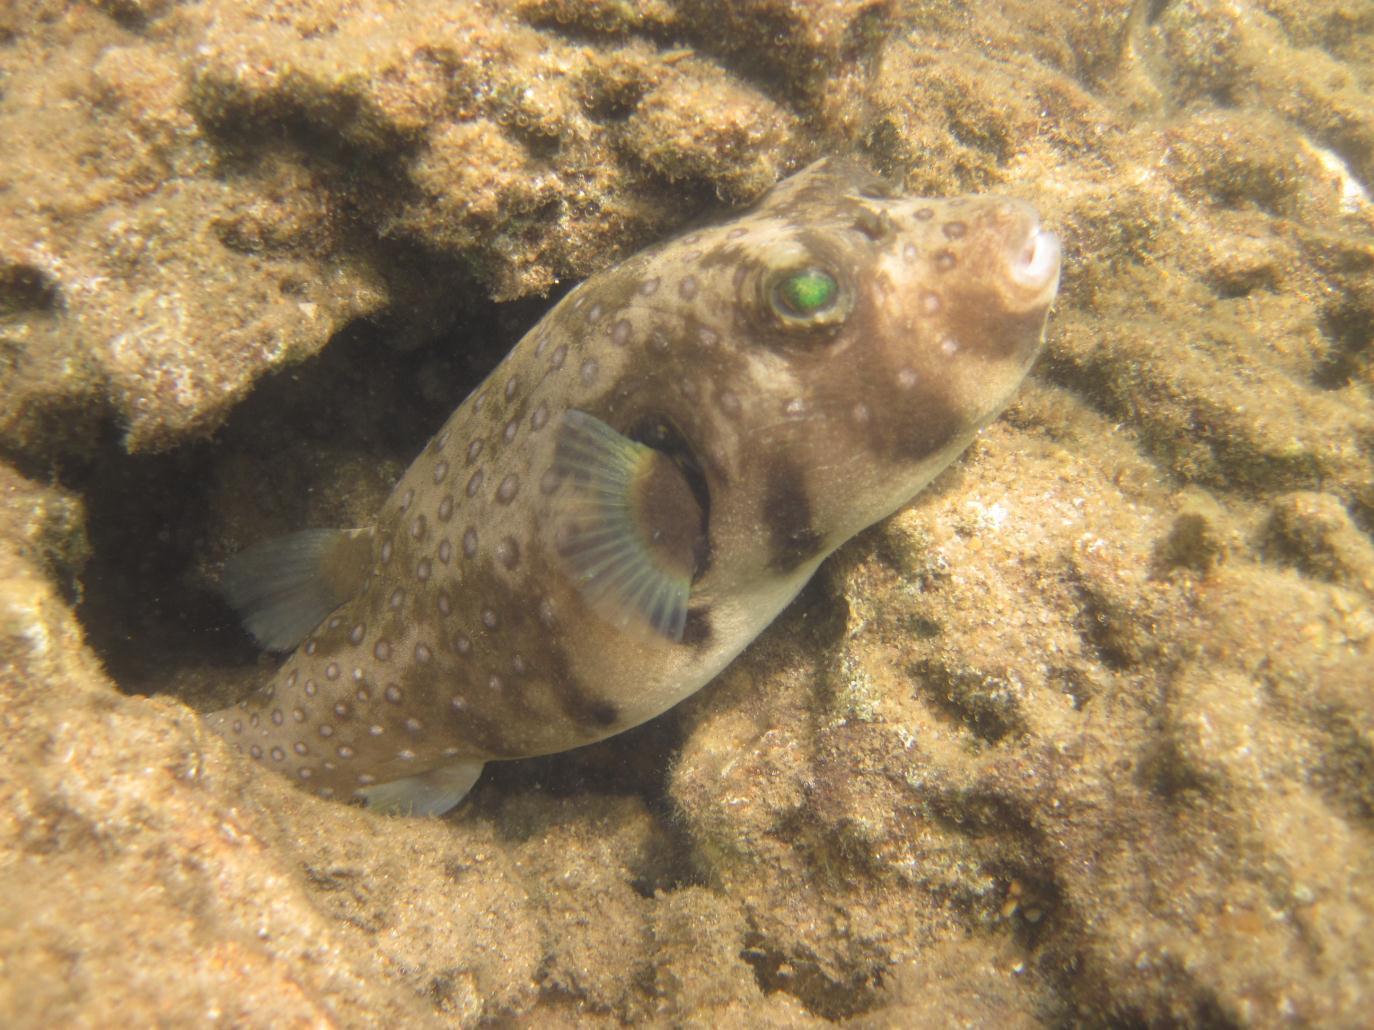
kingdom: Animalia
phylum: Chordata
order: Tetraodontiformes
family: Tetraodontidae
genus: Arothron
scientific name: Arothron hispidus
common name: Stripebelly puffer
